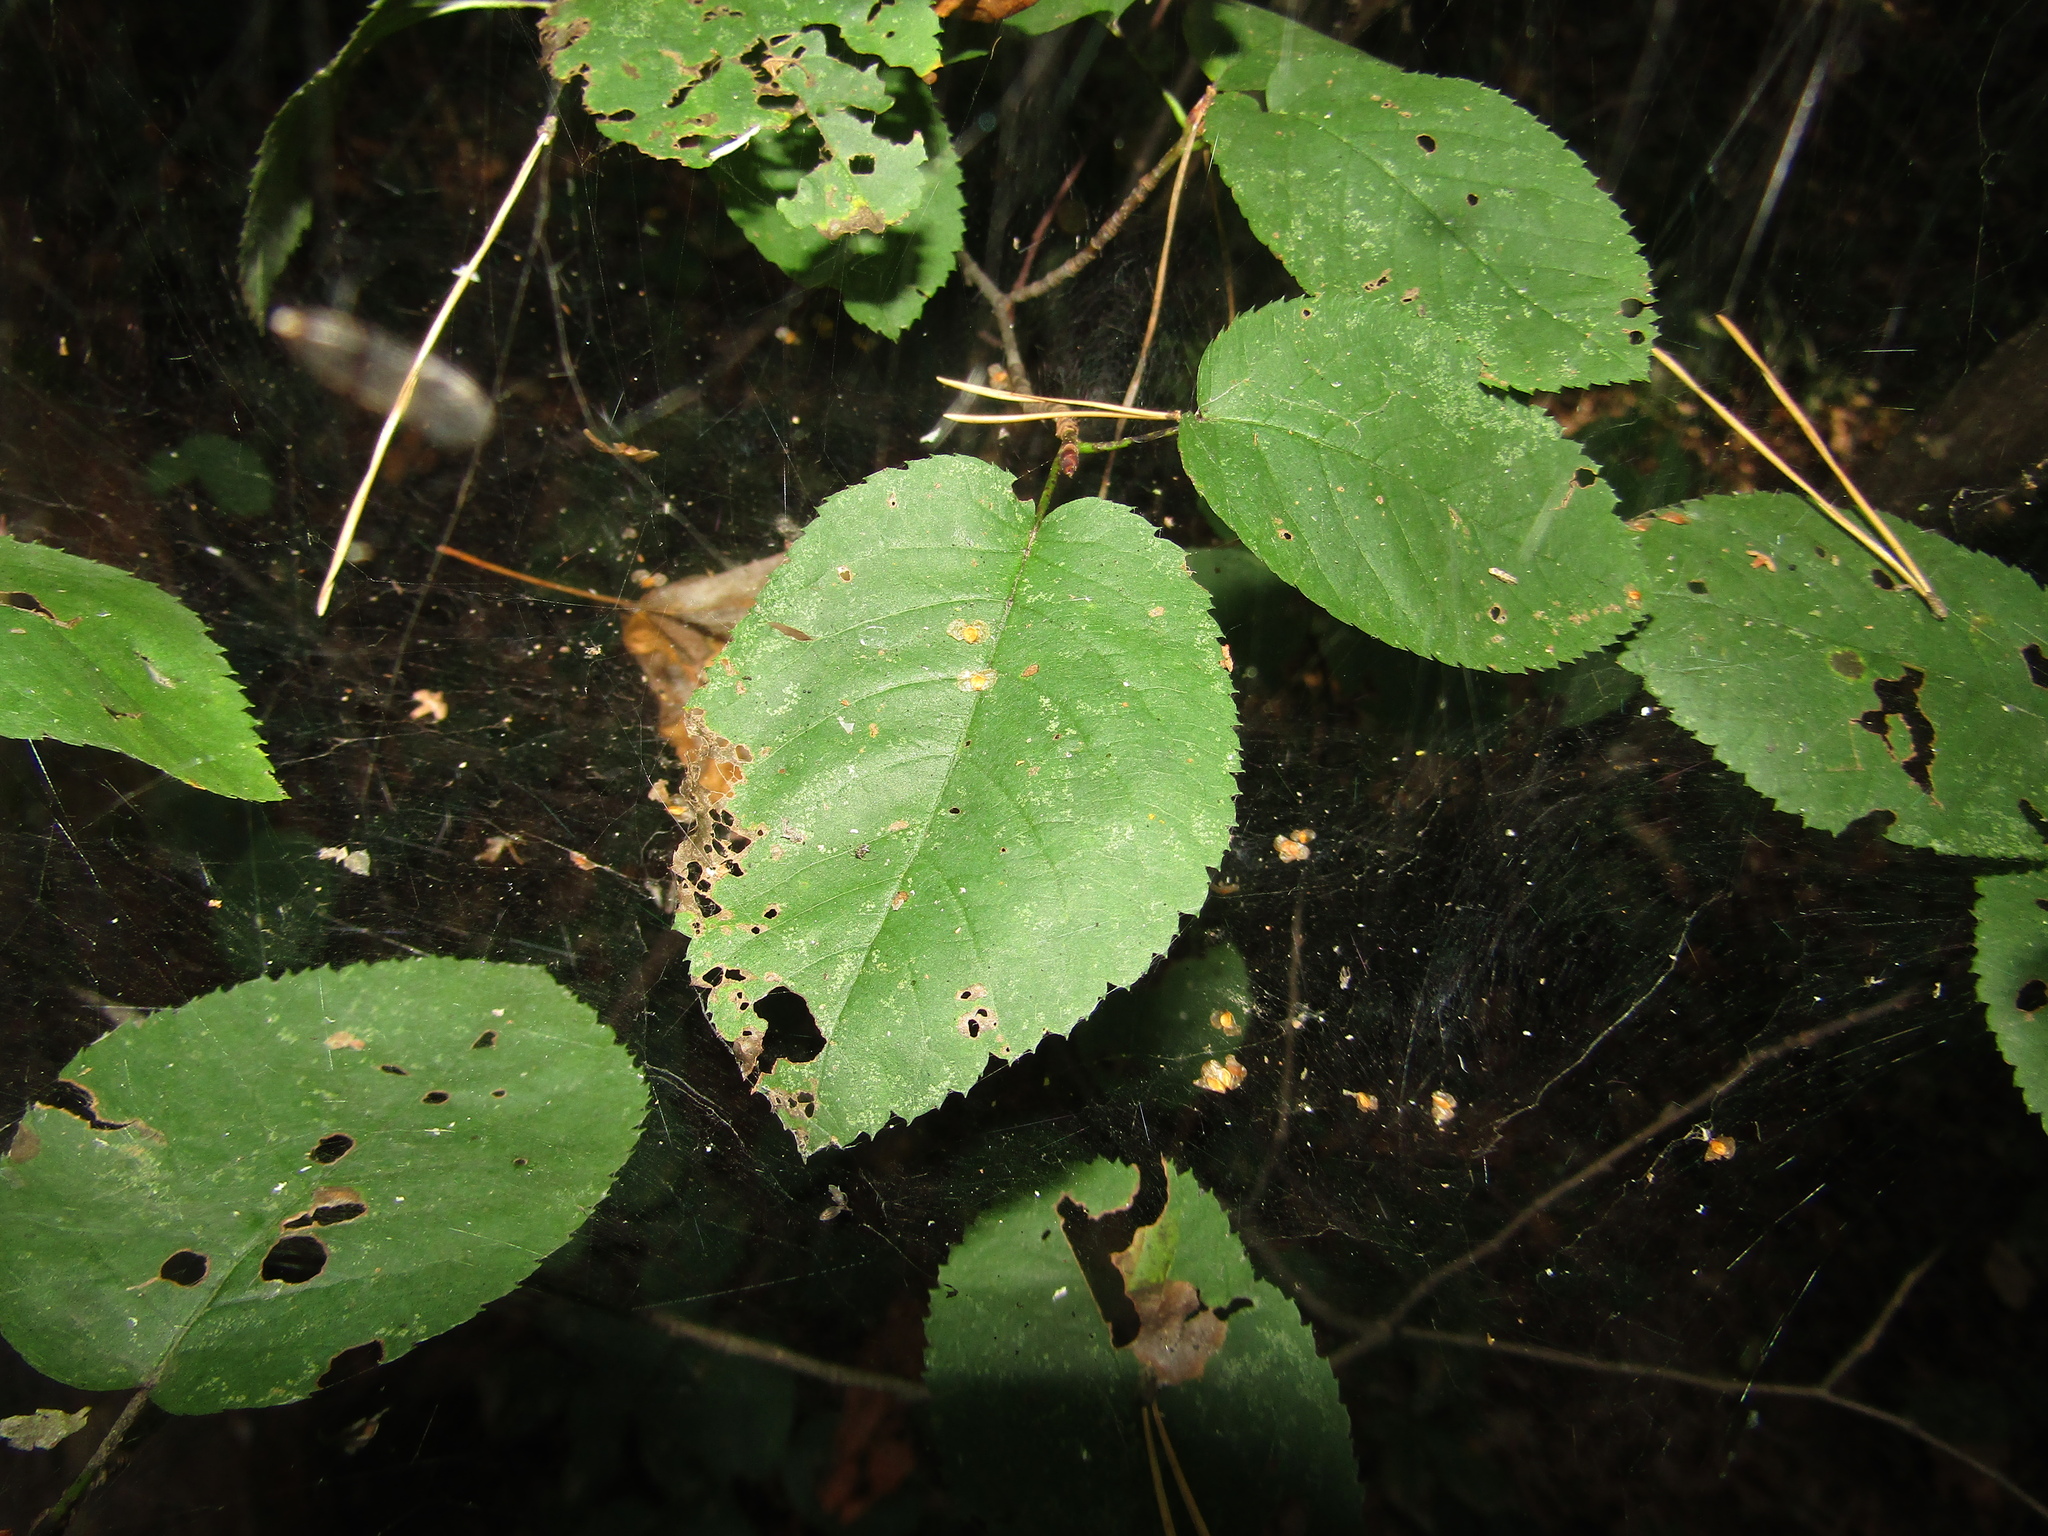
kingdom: Plantae
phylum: Tracheophyta
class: Magnoliopsida
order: Rosales
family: Rosaceae
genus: Amelanchier
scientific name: Amelanchier
